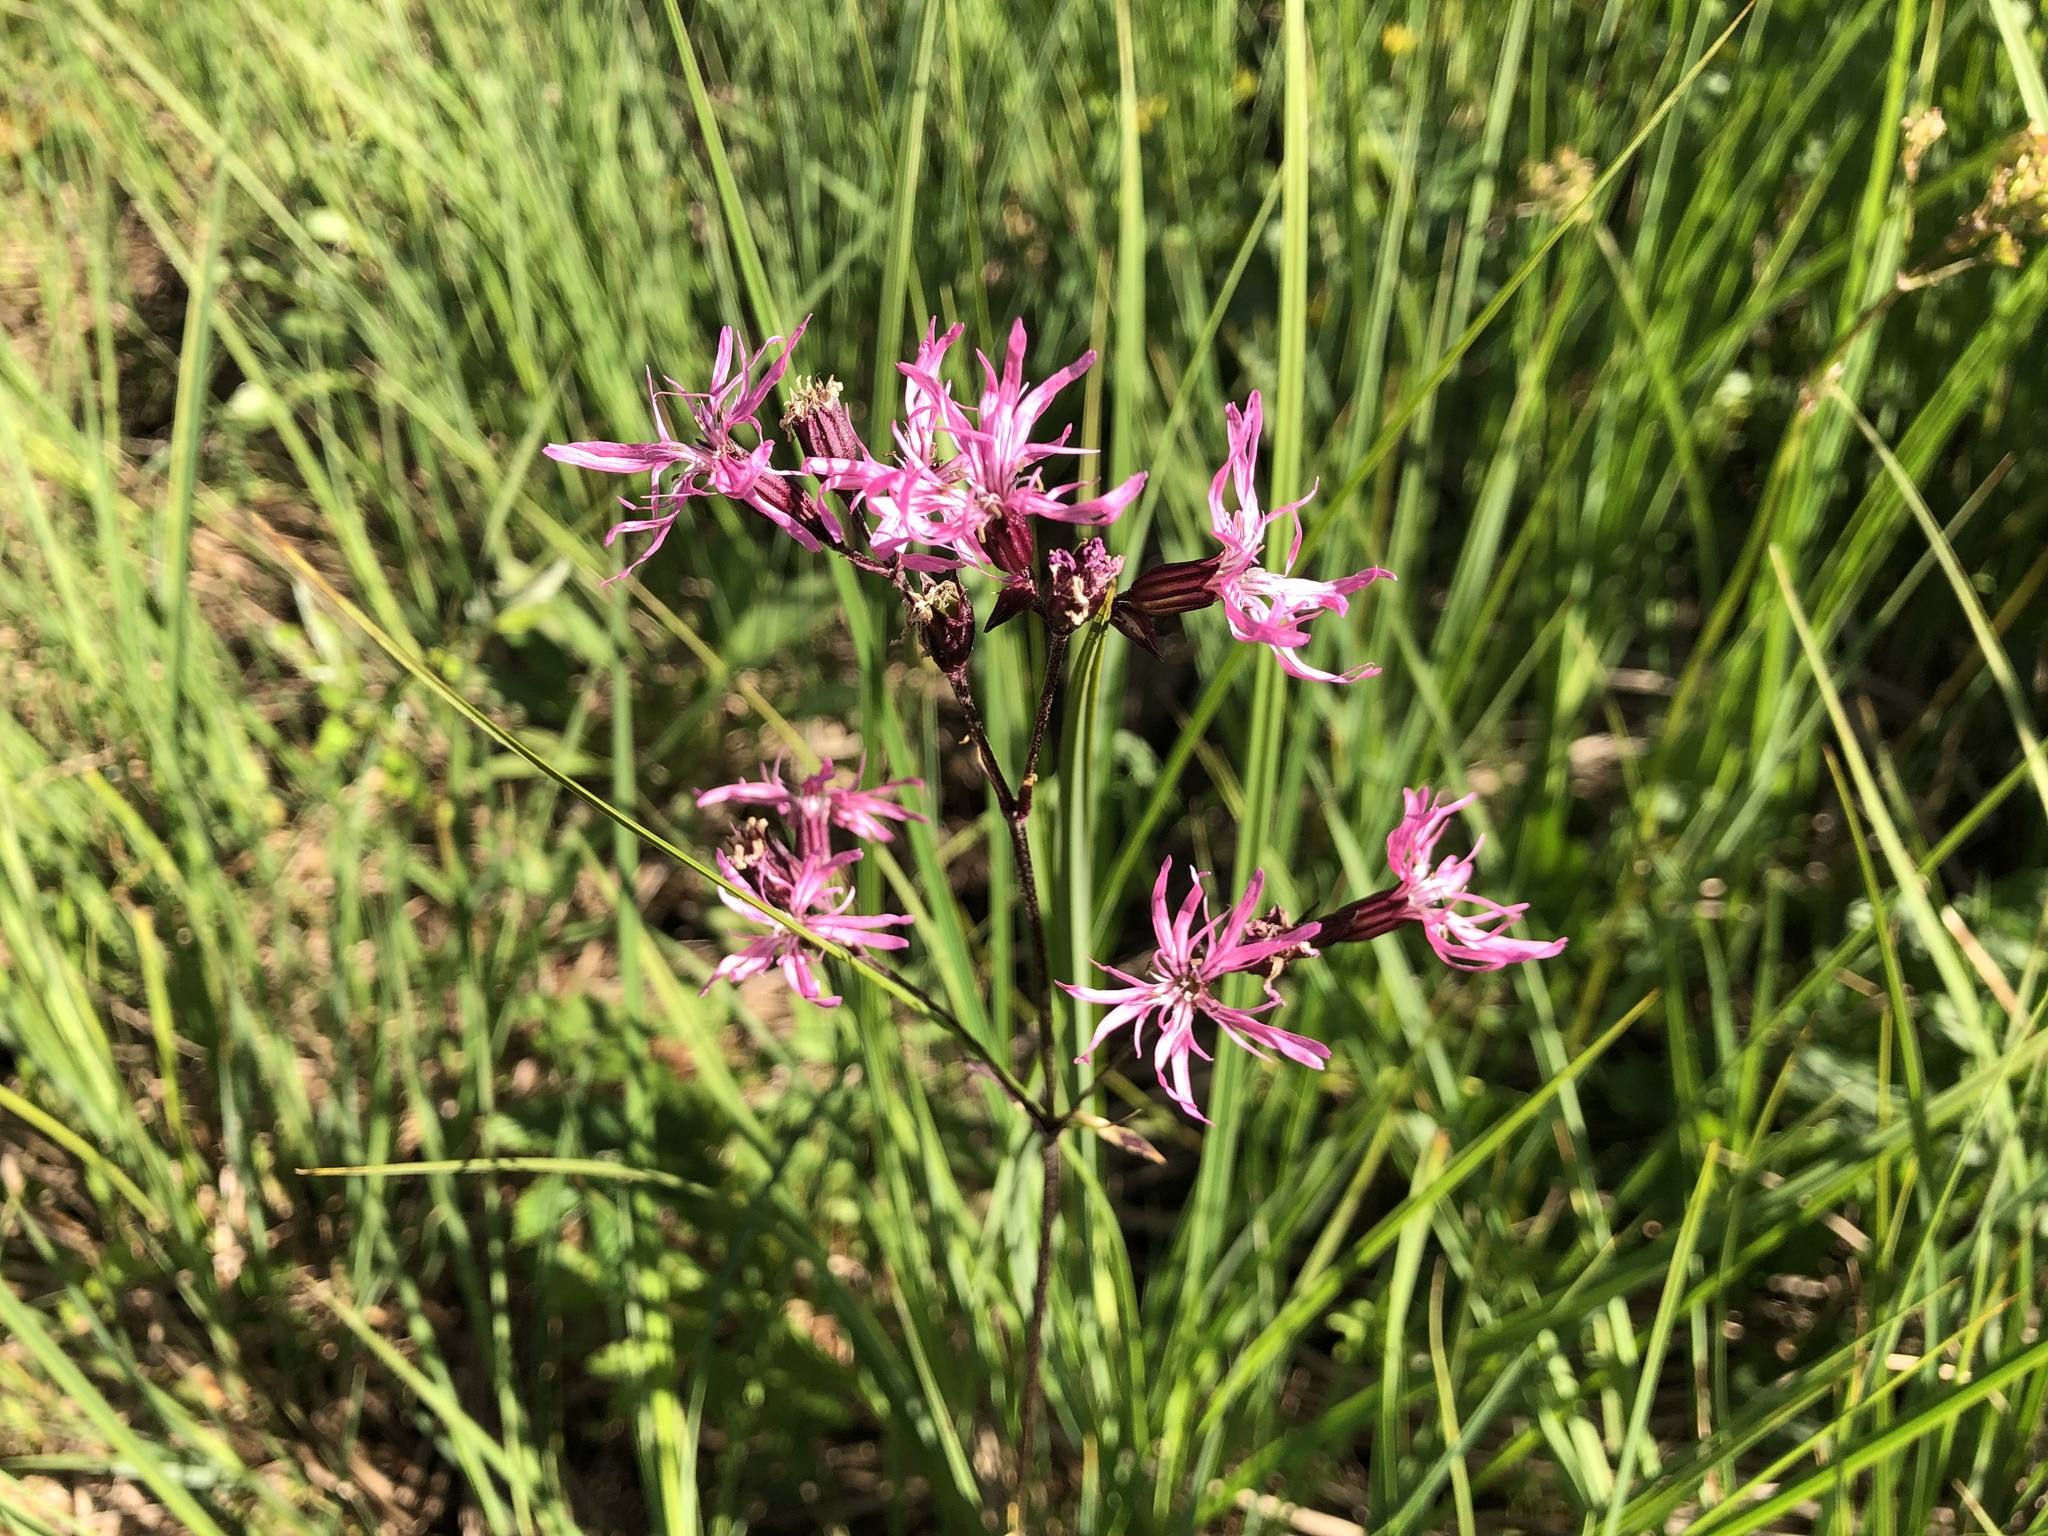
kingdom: Plantae
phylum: Tracheophyta
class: Magnoliopsida
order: Caryophyllales
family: Caryophyllaceae
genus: Silene
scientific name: Silene flos-cuculi
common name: Ragged-robin
